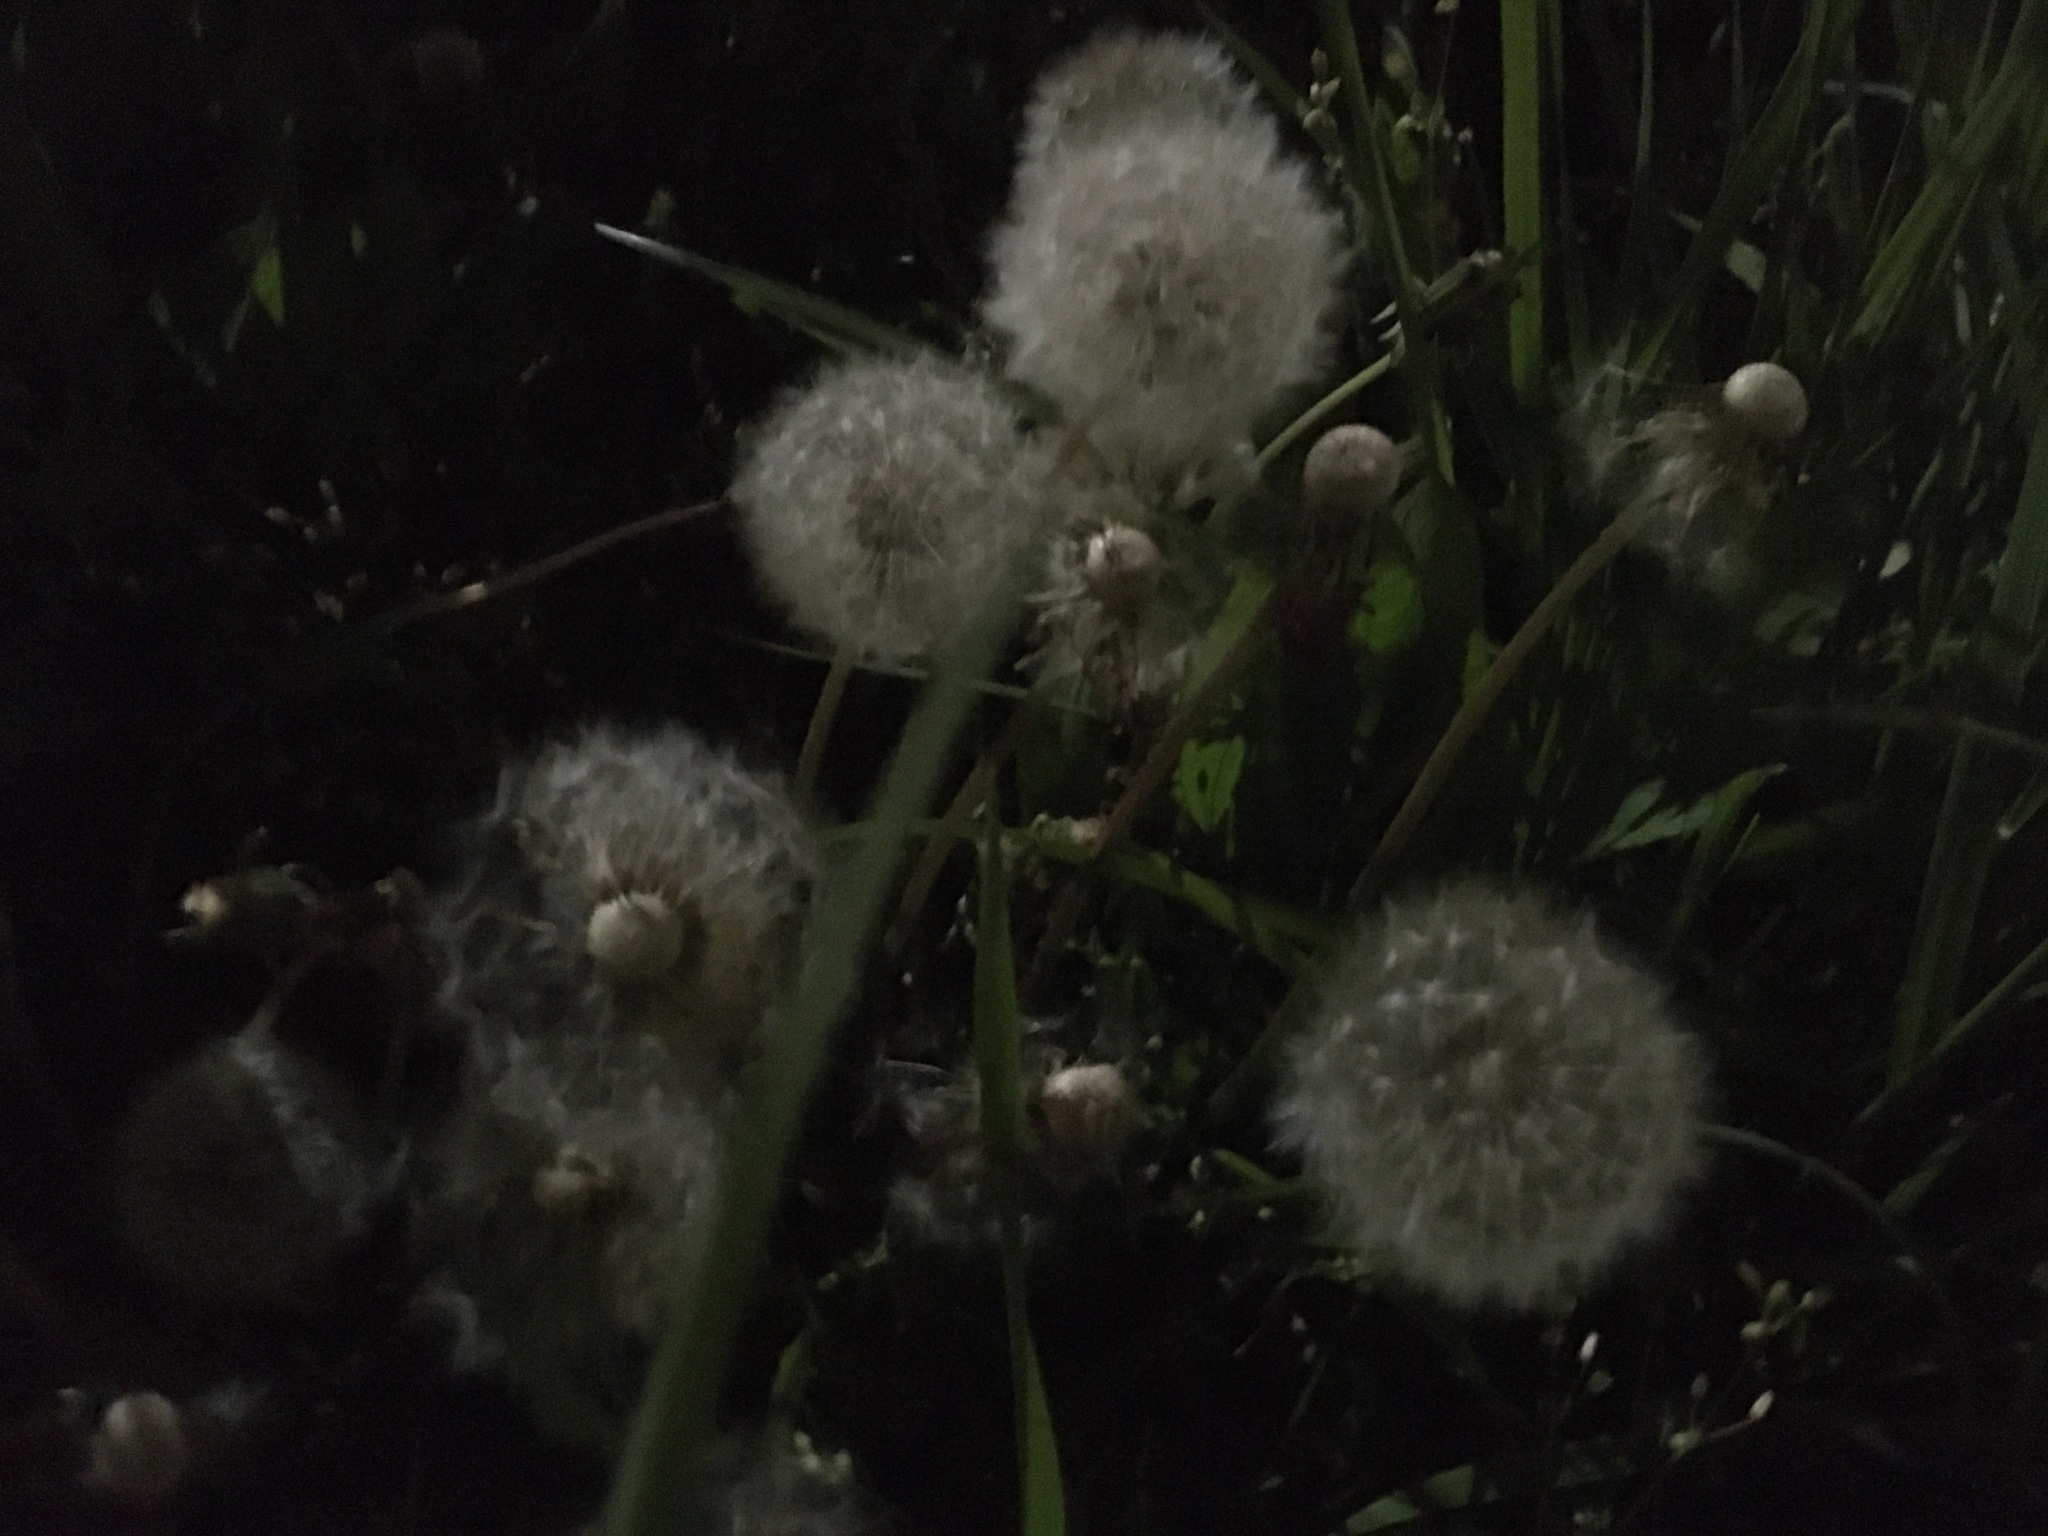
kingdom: Plantae
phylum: Tracheophyta
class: Magnoliopsida
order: Asterales
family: Asteraceae
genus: Taraxacum
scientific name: Taraxacum officinale
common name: Common dandelion
